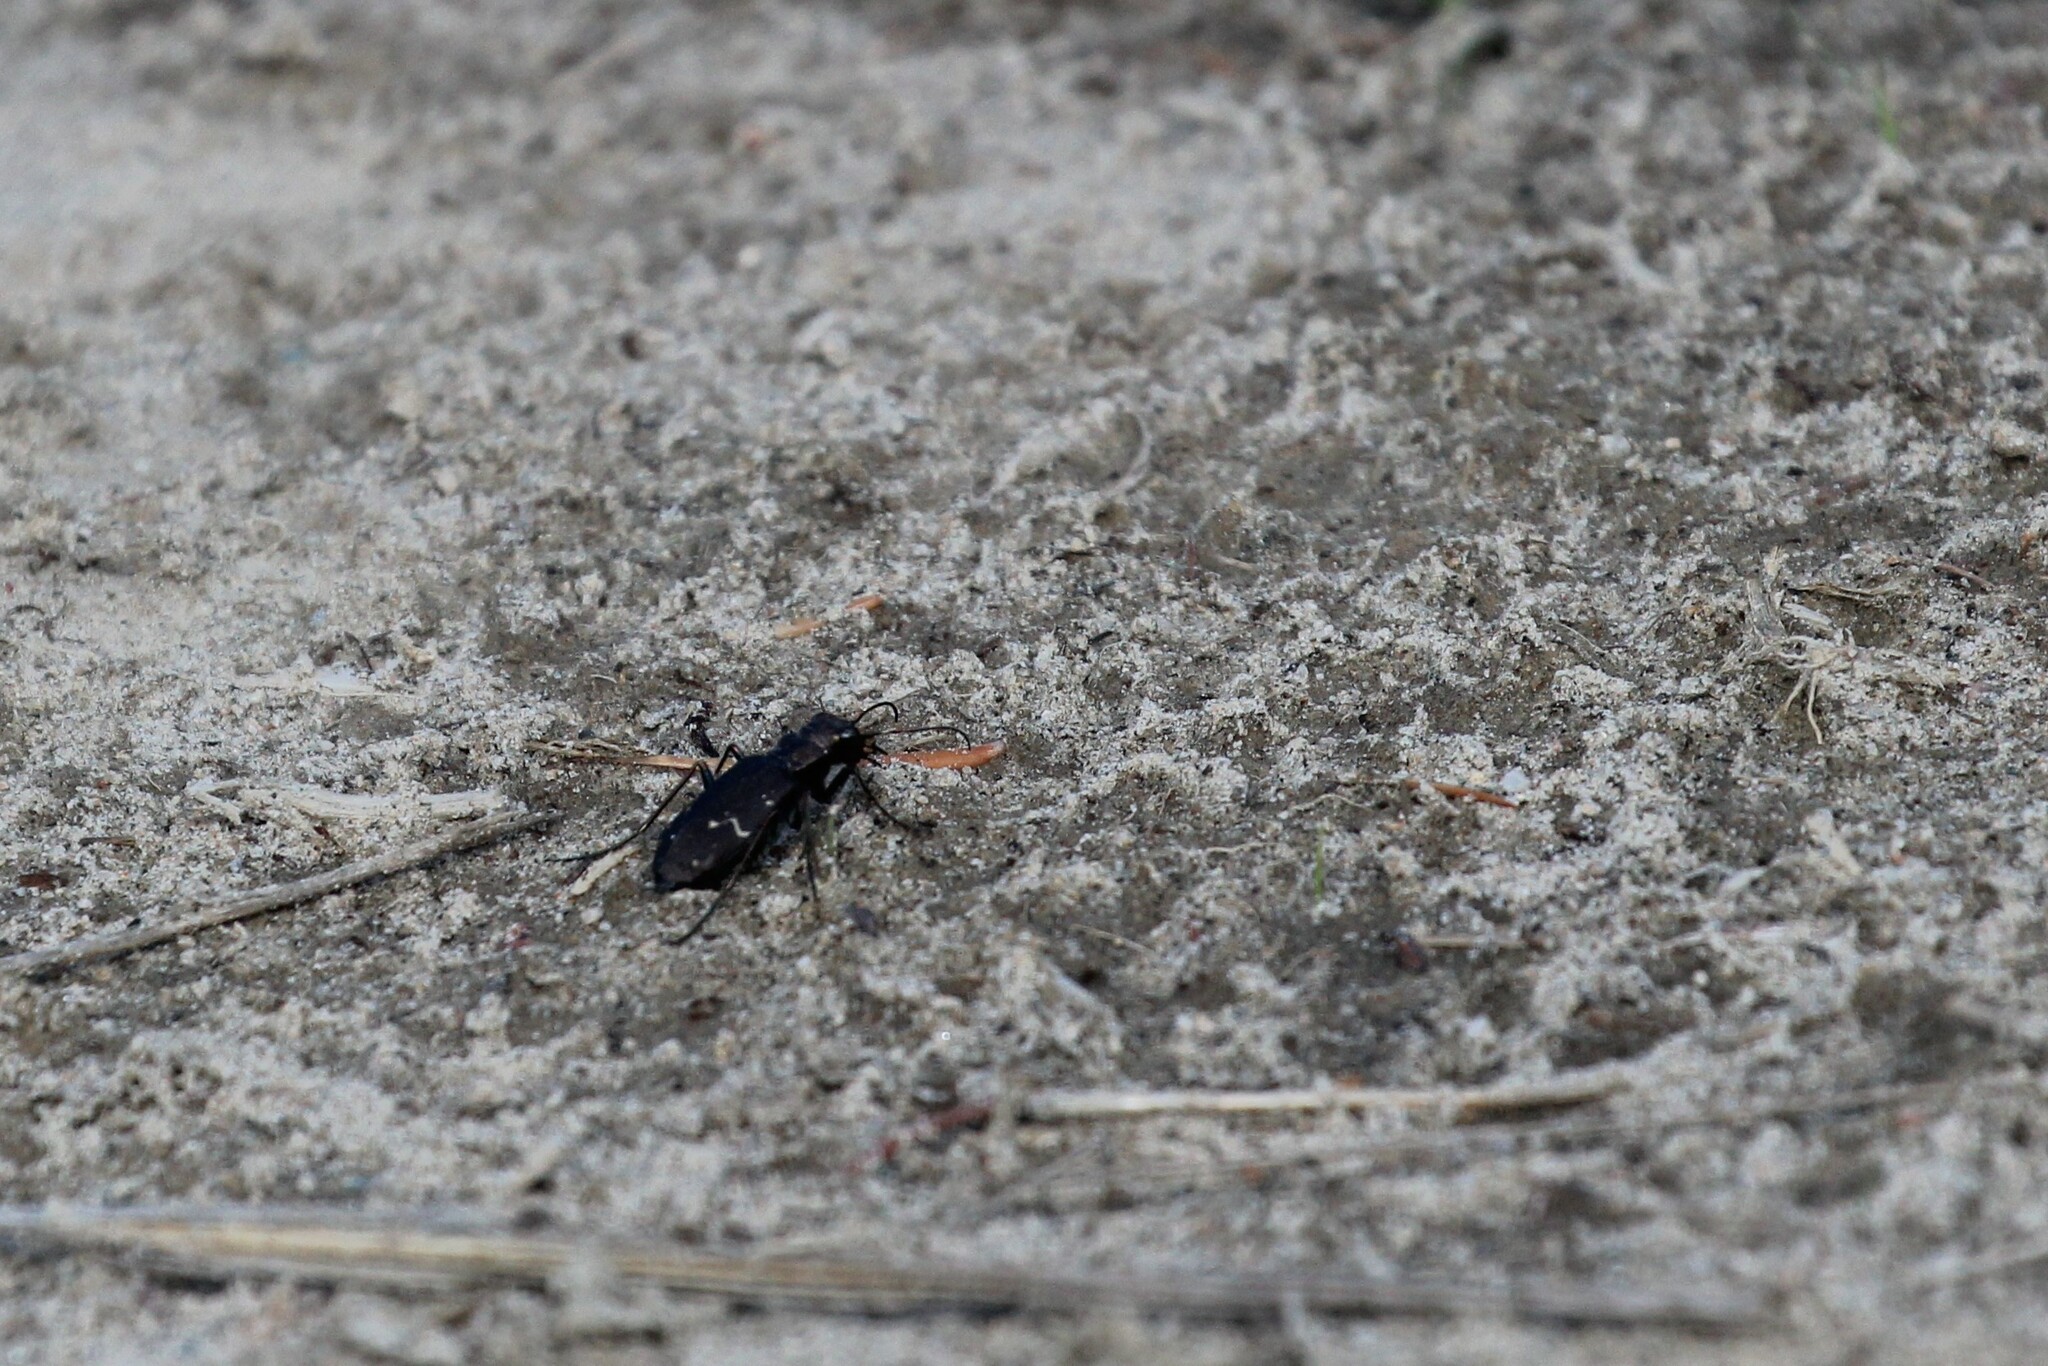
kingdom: Animalia
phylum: Arthropoda
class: Insecta
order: Coleoptera
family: Carabidae
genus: Cicindela
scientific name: Cicindela longilabris
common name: Boreal long-lipped tiger beetle
